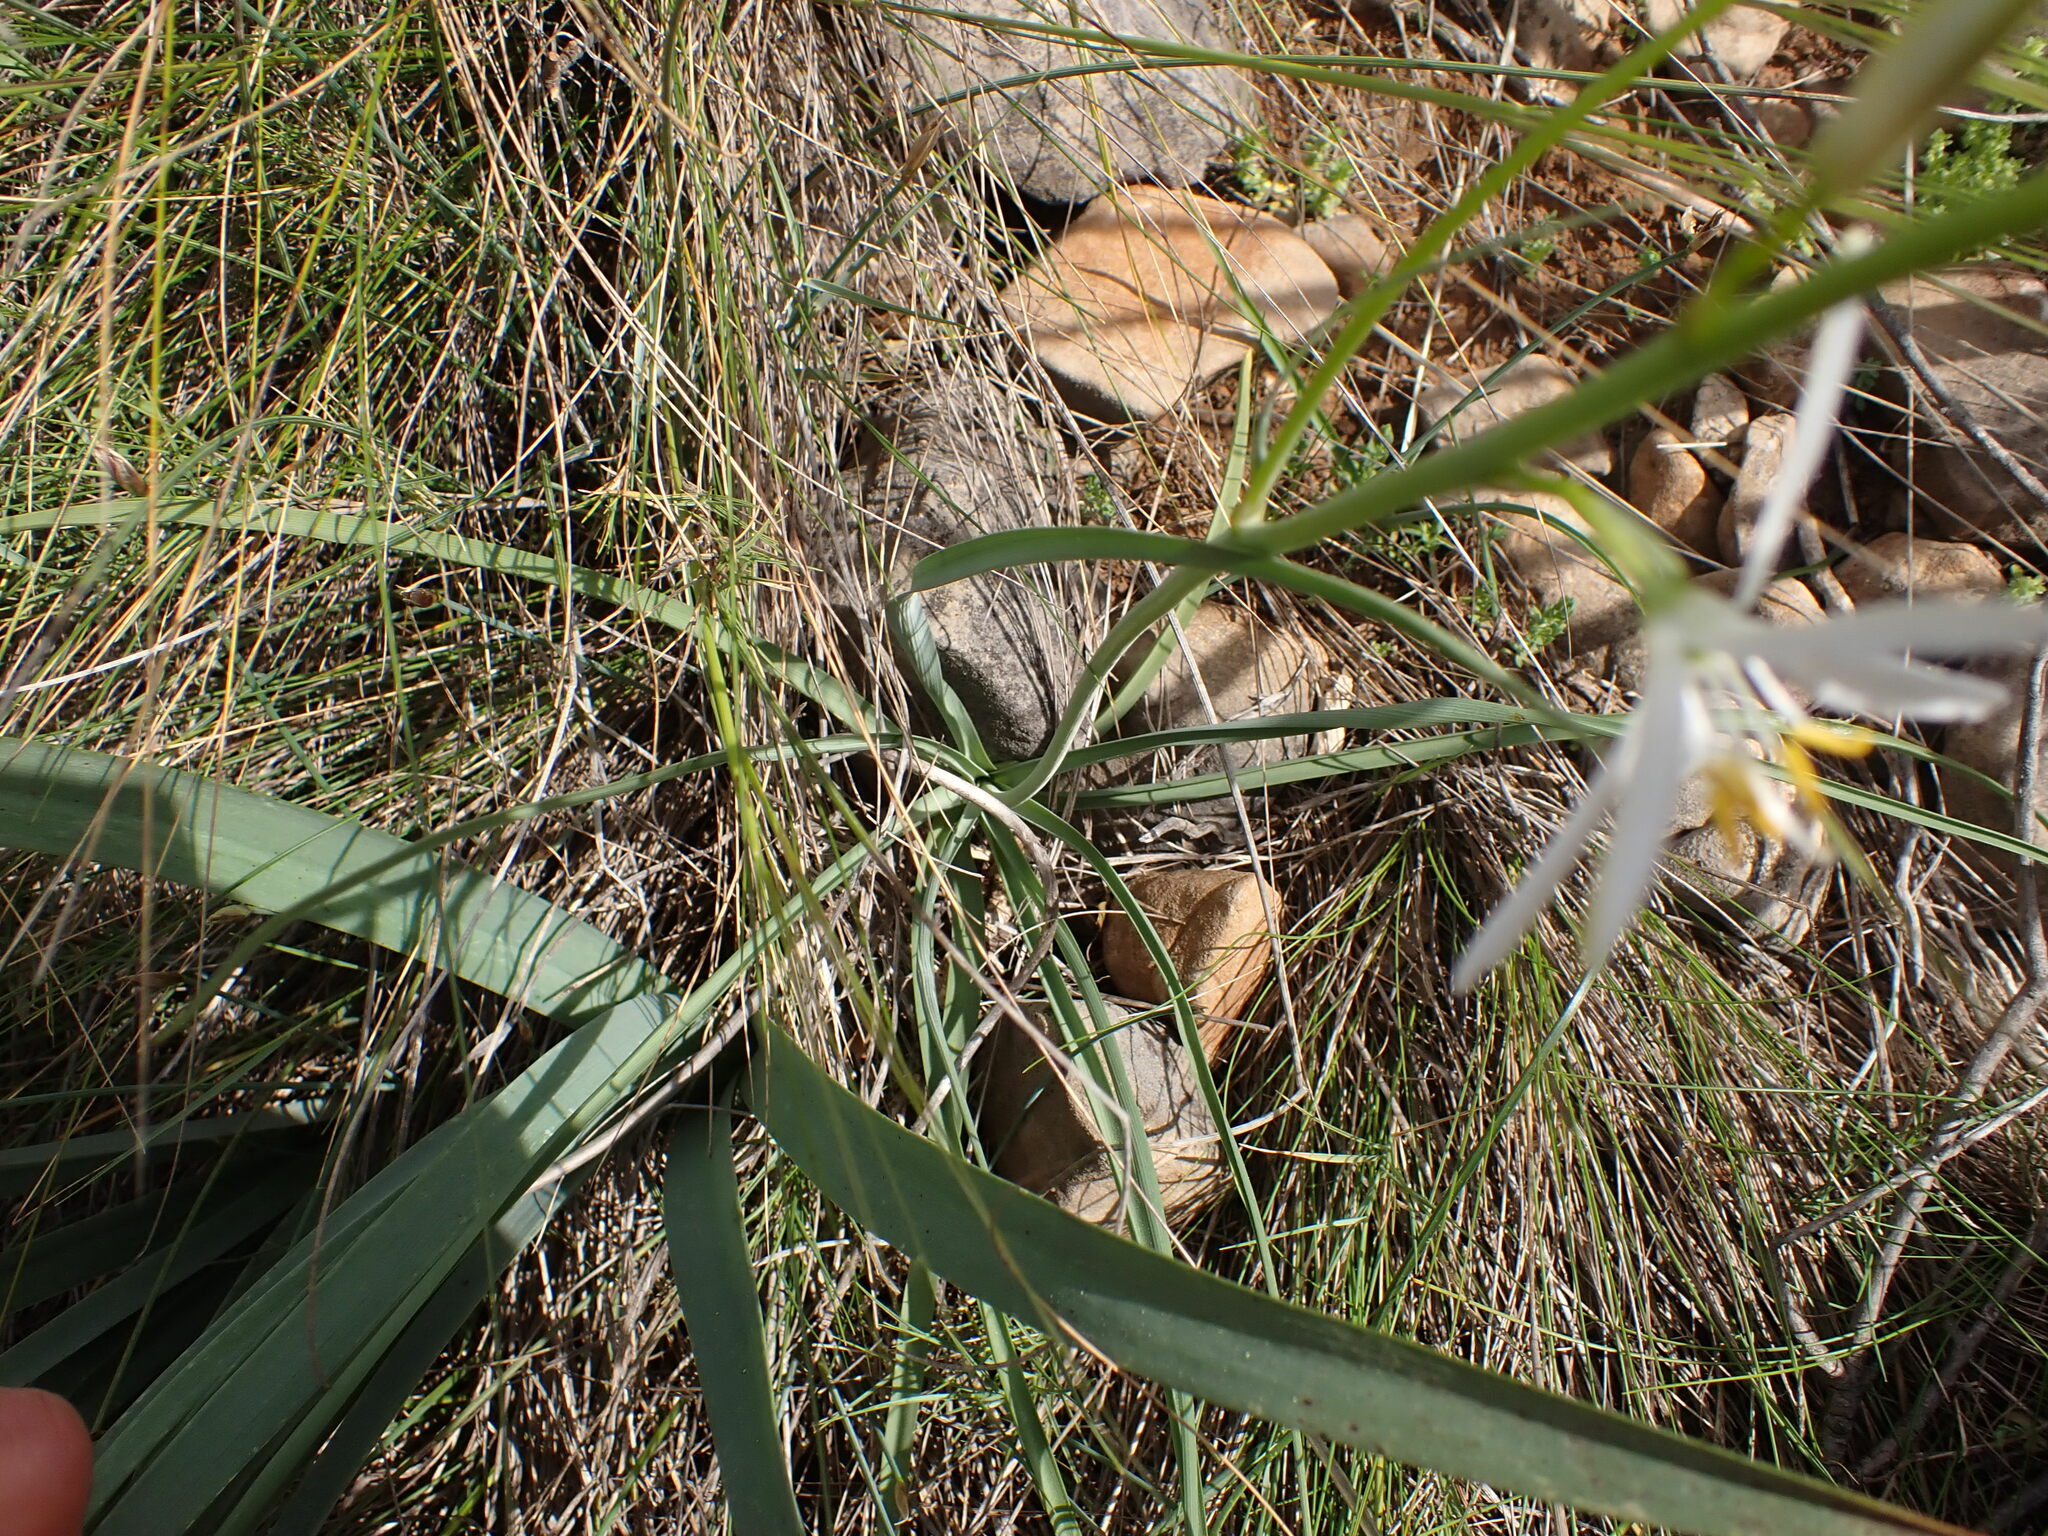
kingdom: Plantae
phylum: Tracheophyta
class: Liliopsida
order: Asparagales
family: Asparagaceae
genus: Anthericum
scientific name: Anthericum liliago
